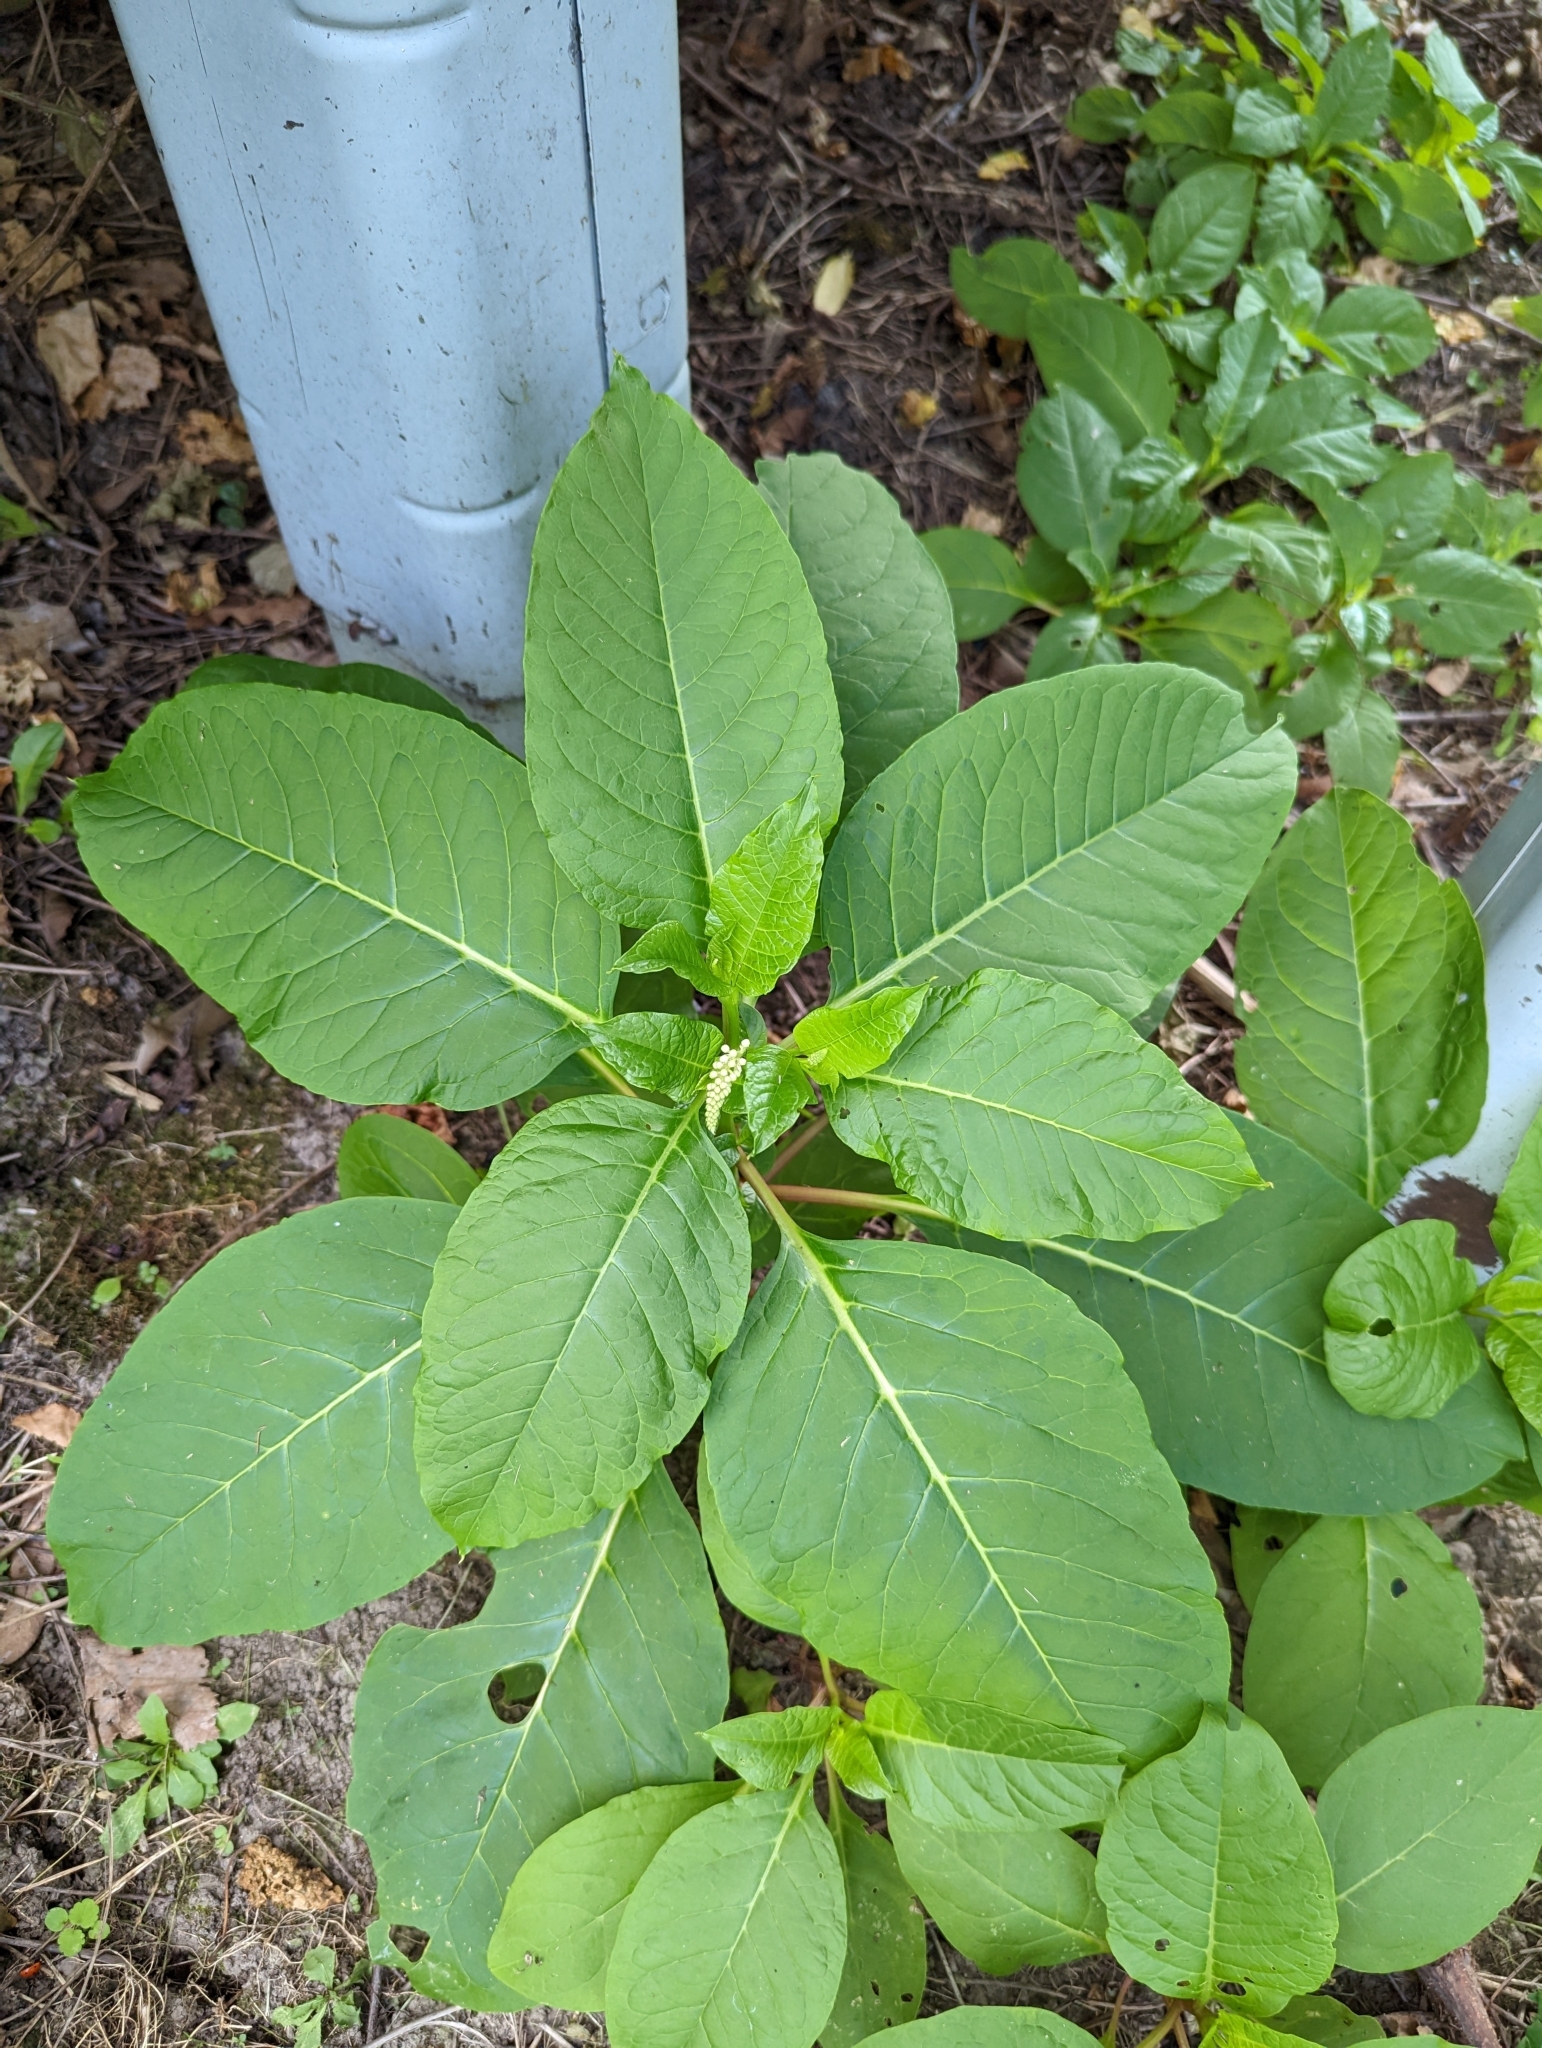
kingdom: Plantae
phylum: Tracheophyta
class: Magnoliopsida
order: Caryophyllales
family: Phytolaccaceae
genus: Phytolacca
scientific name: Phytolacca americana
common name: American pokeweed
